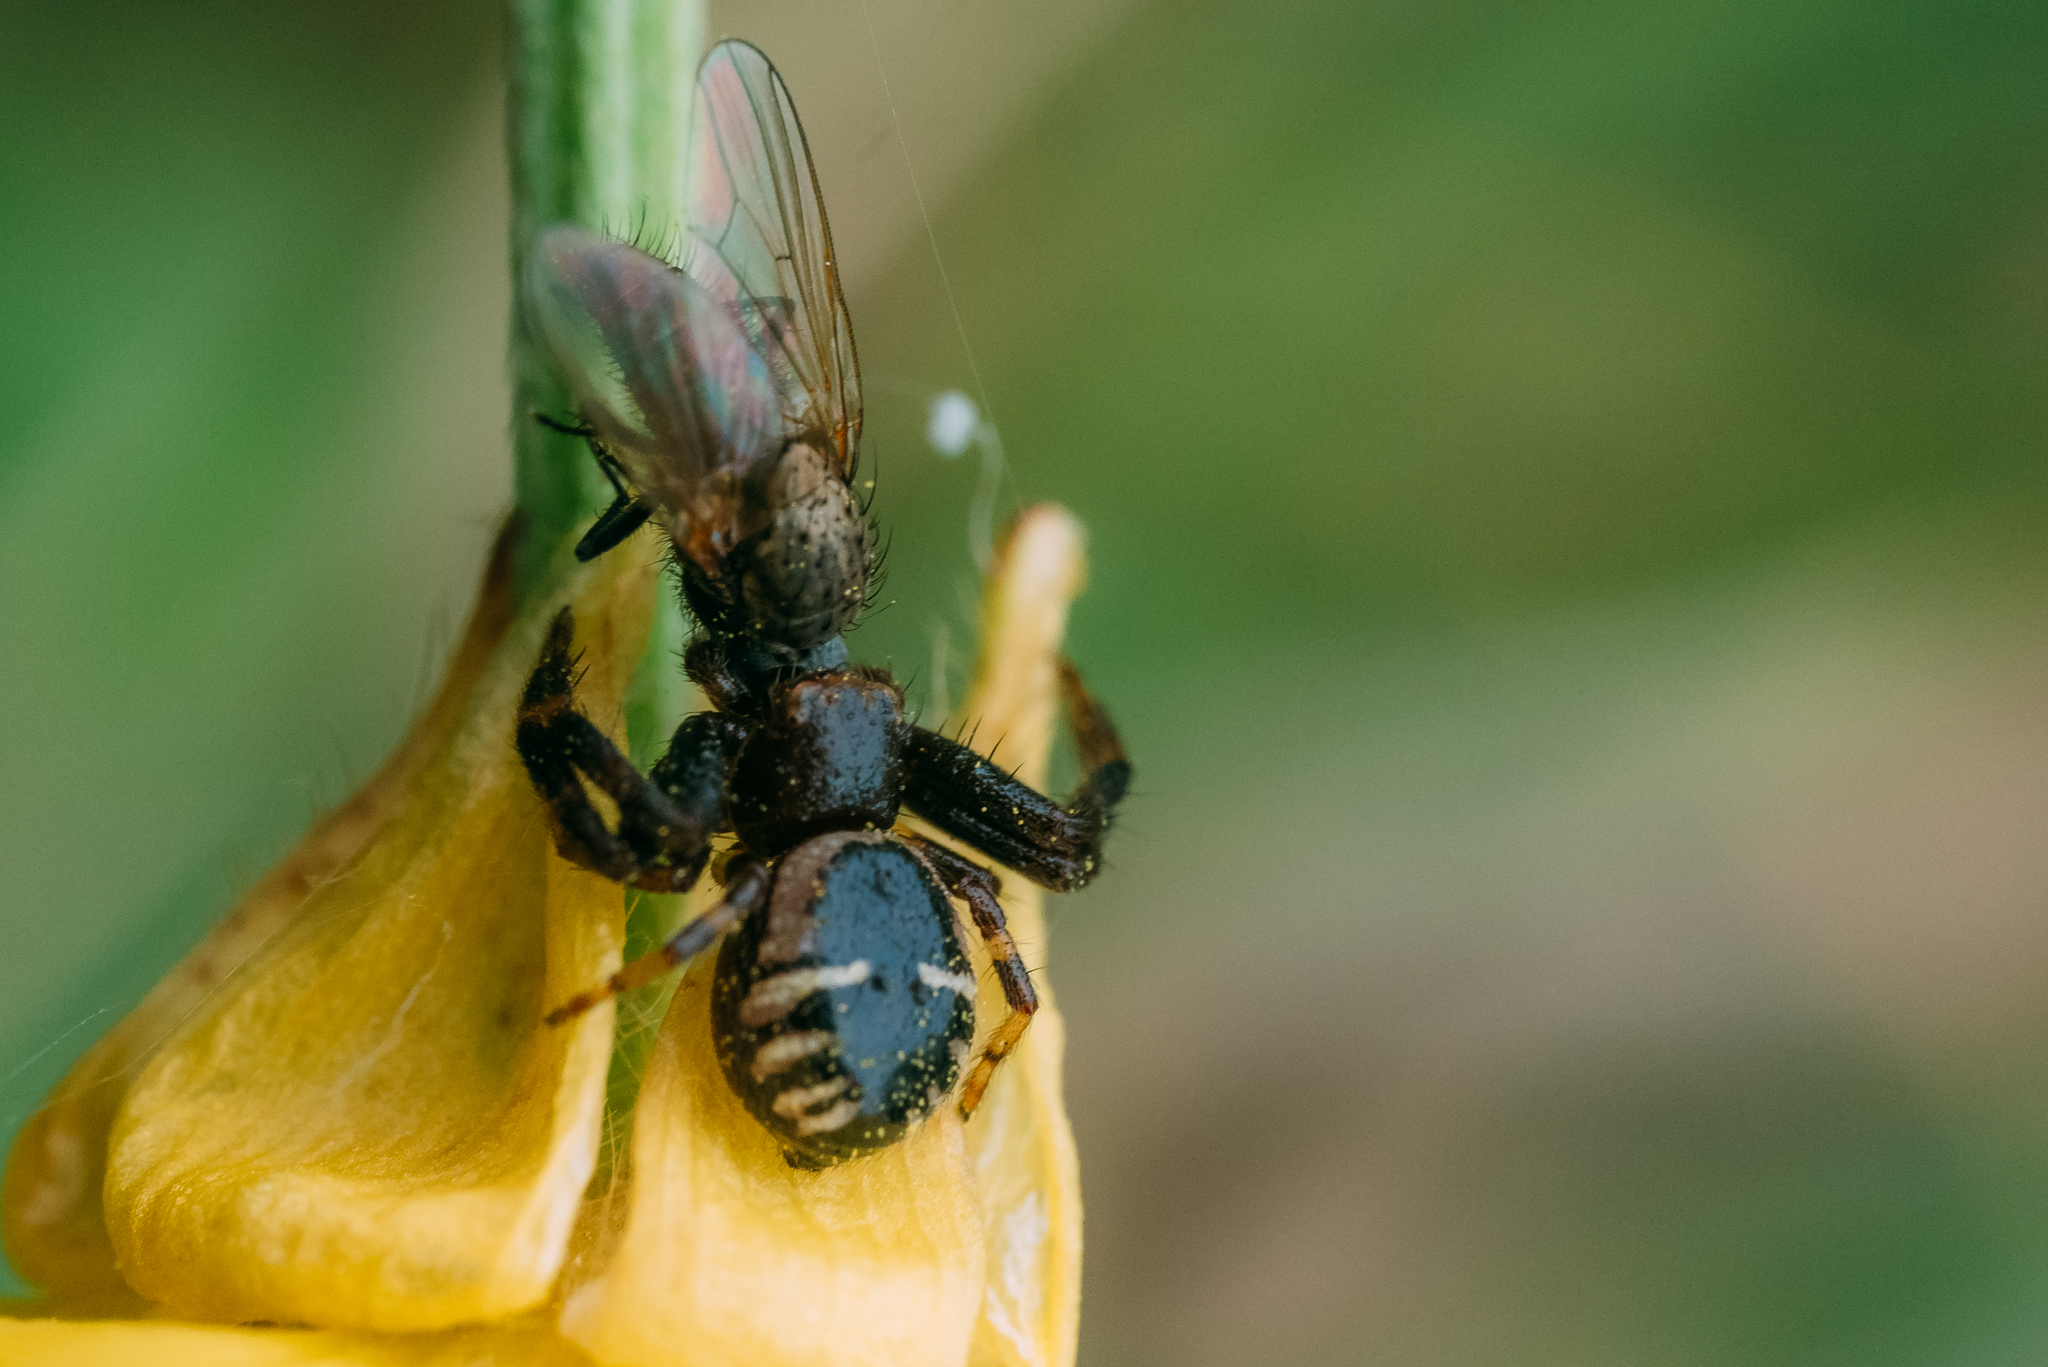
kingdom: Animalia
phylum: Arthropoda
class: Arachnida
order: Araneae
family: Thomisidae
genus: Synema
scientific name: Synema globosum
